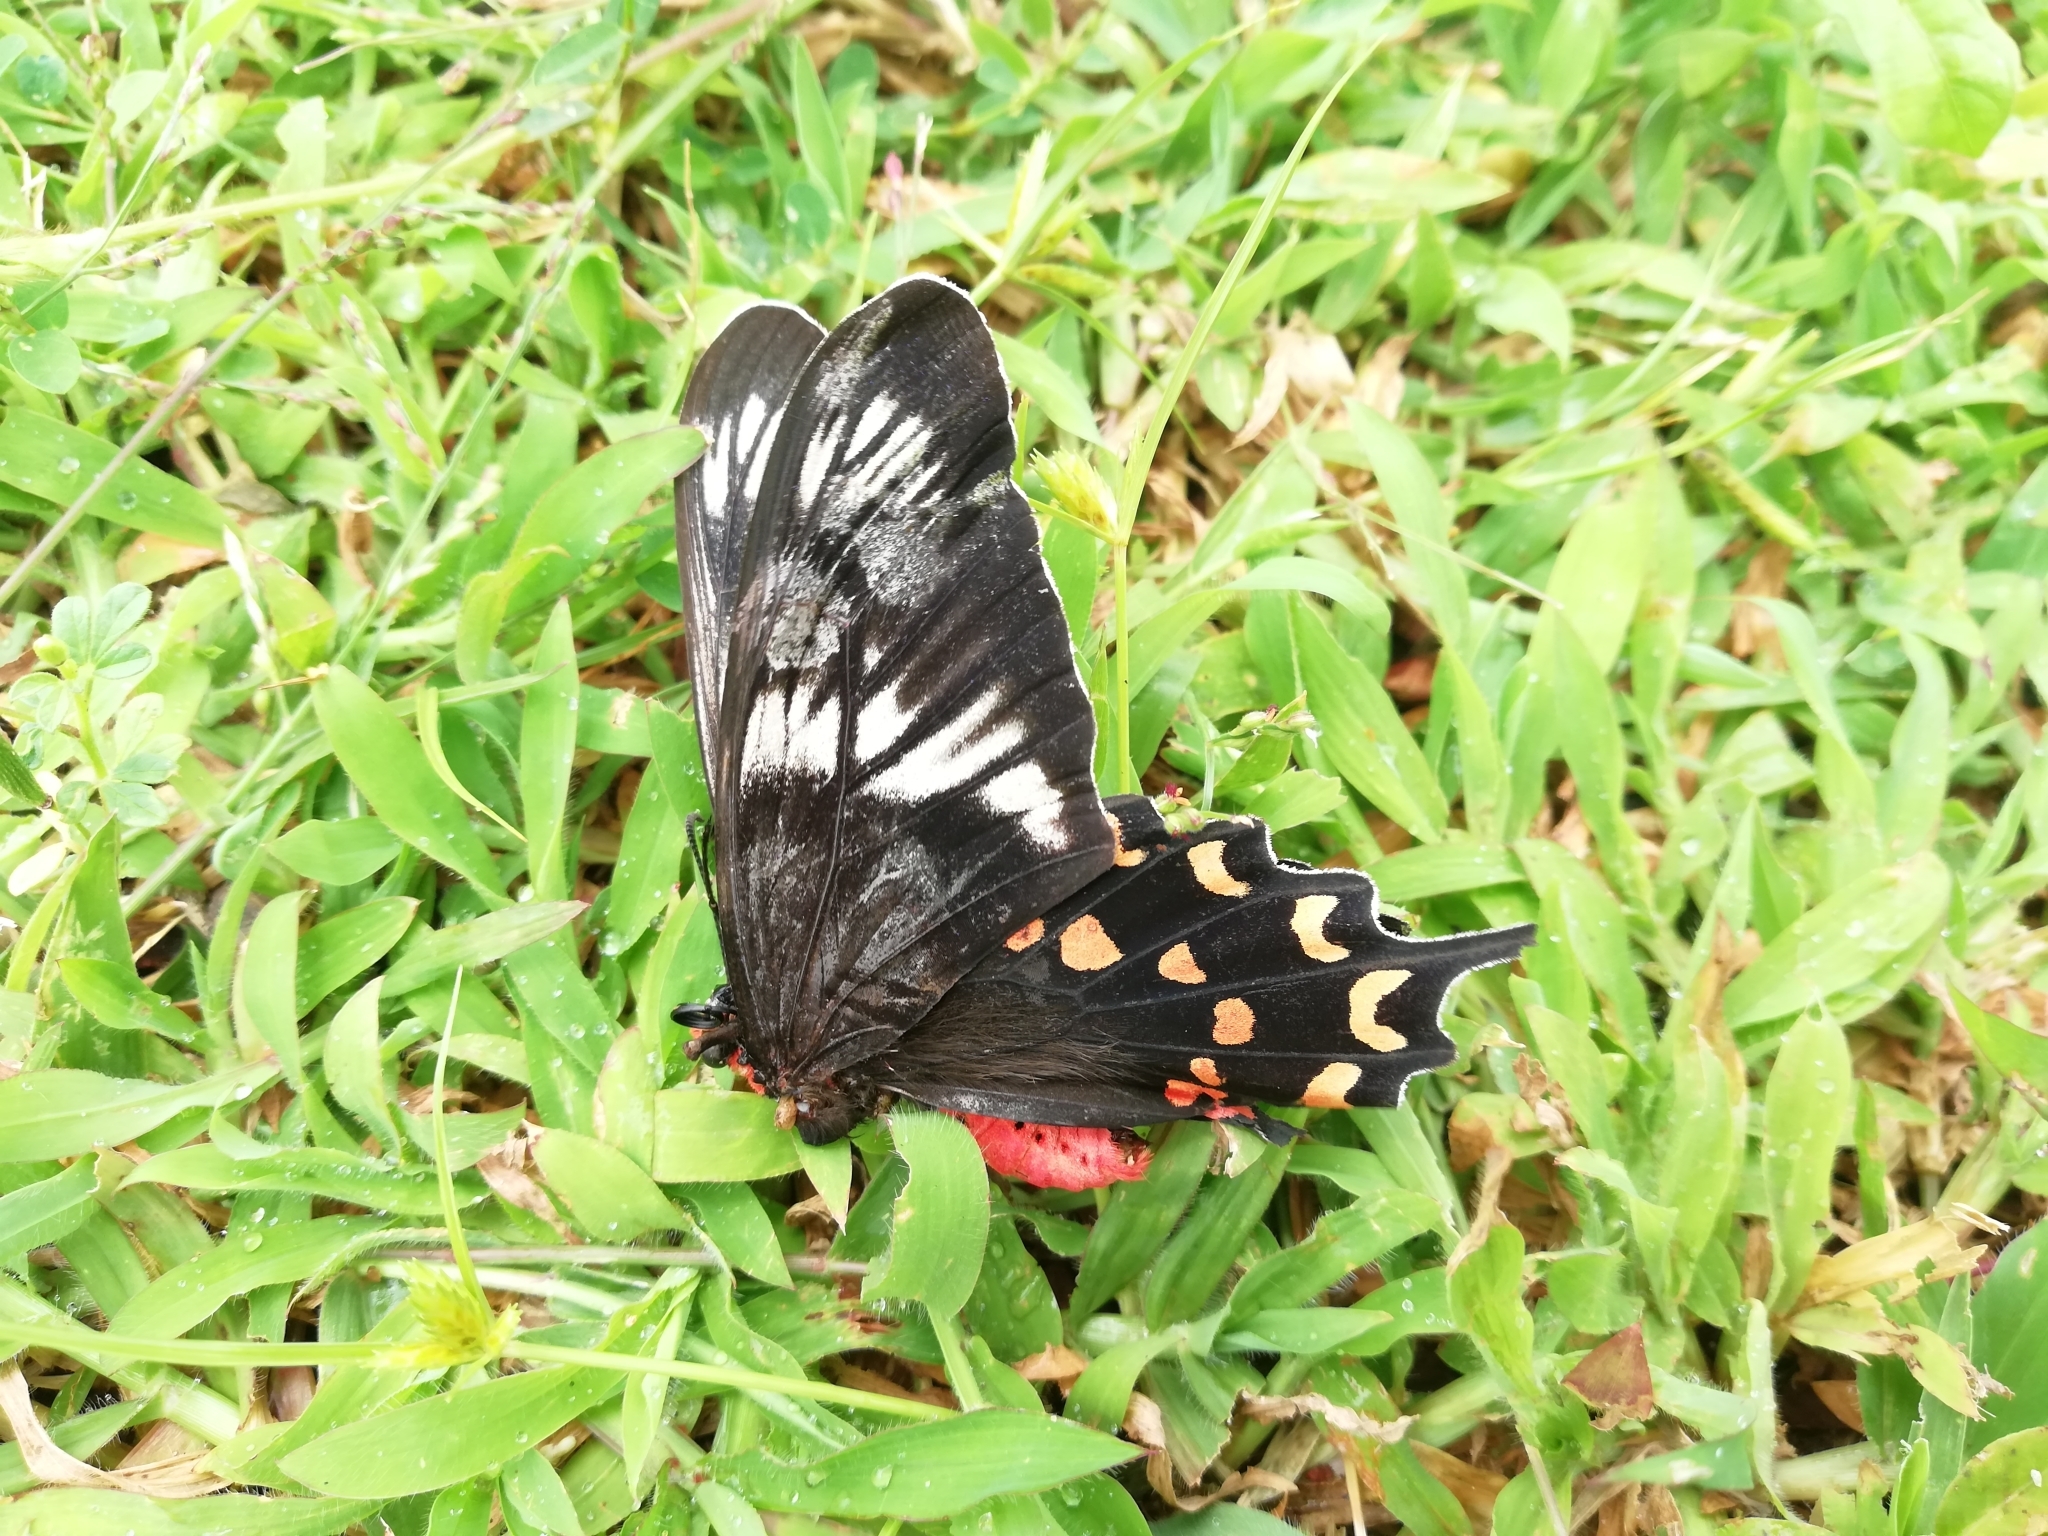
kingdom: Animalia
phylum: Arthropoda
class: Insecta
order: Lepidoptera
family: Papilionidae
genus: Pachliopta
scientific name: Pachliopta hector
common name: Crimson rose
